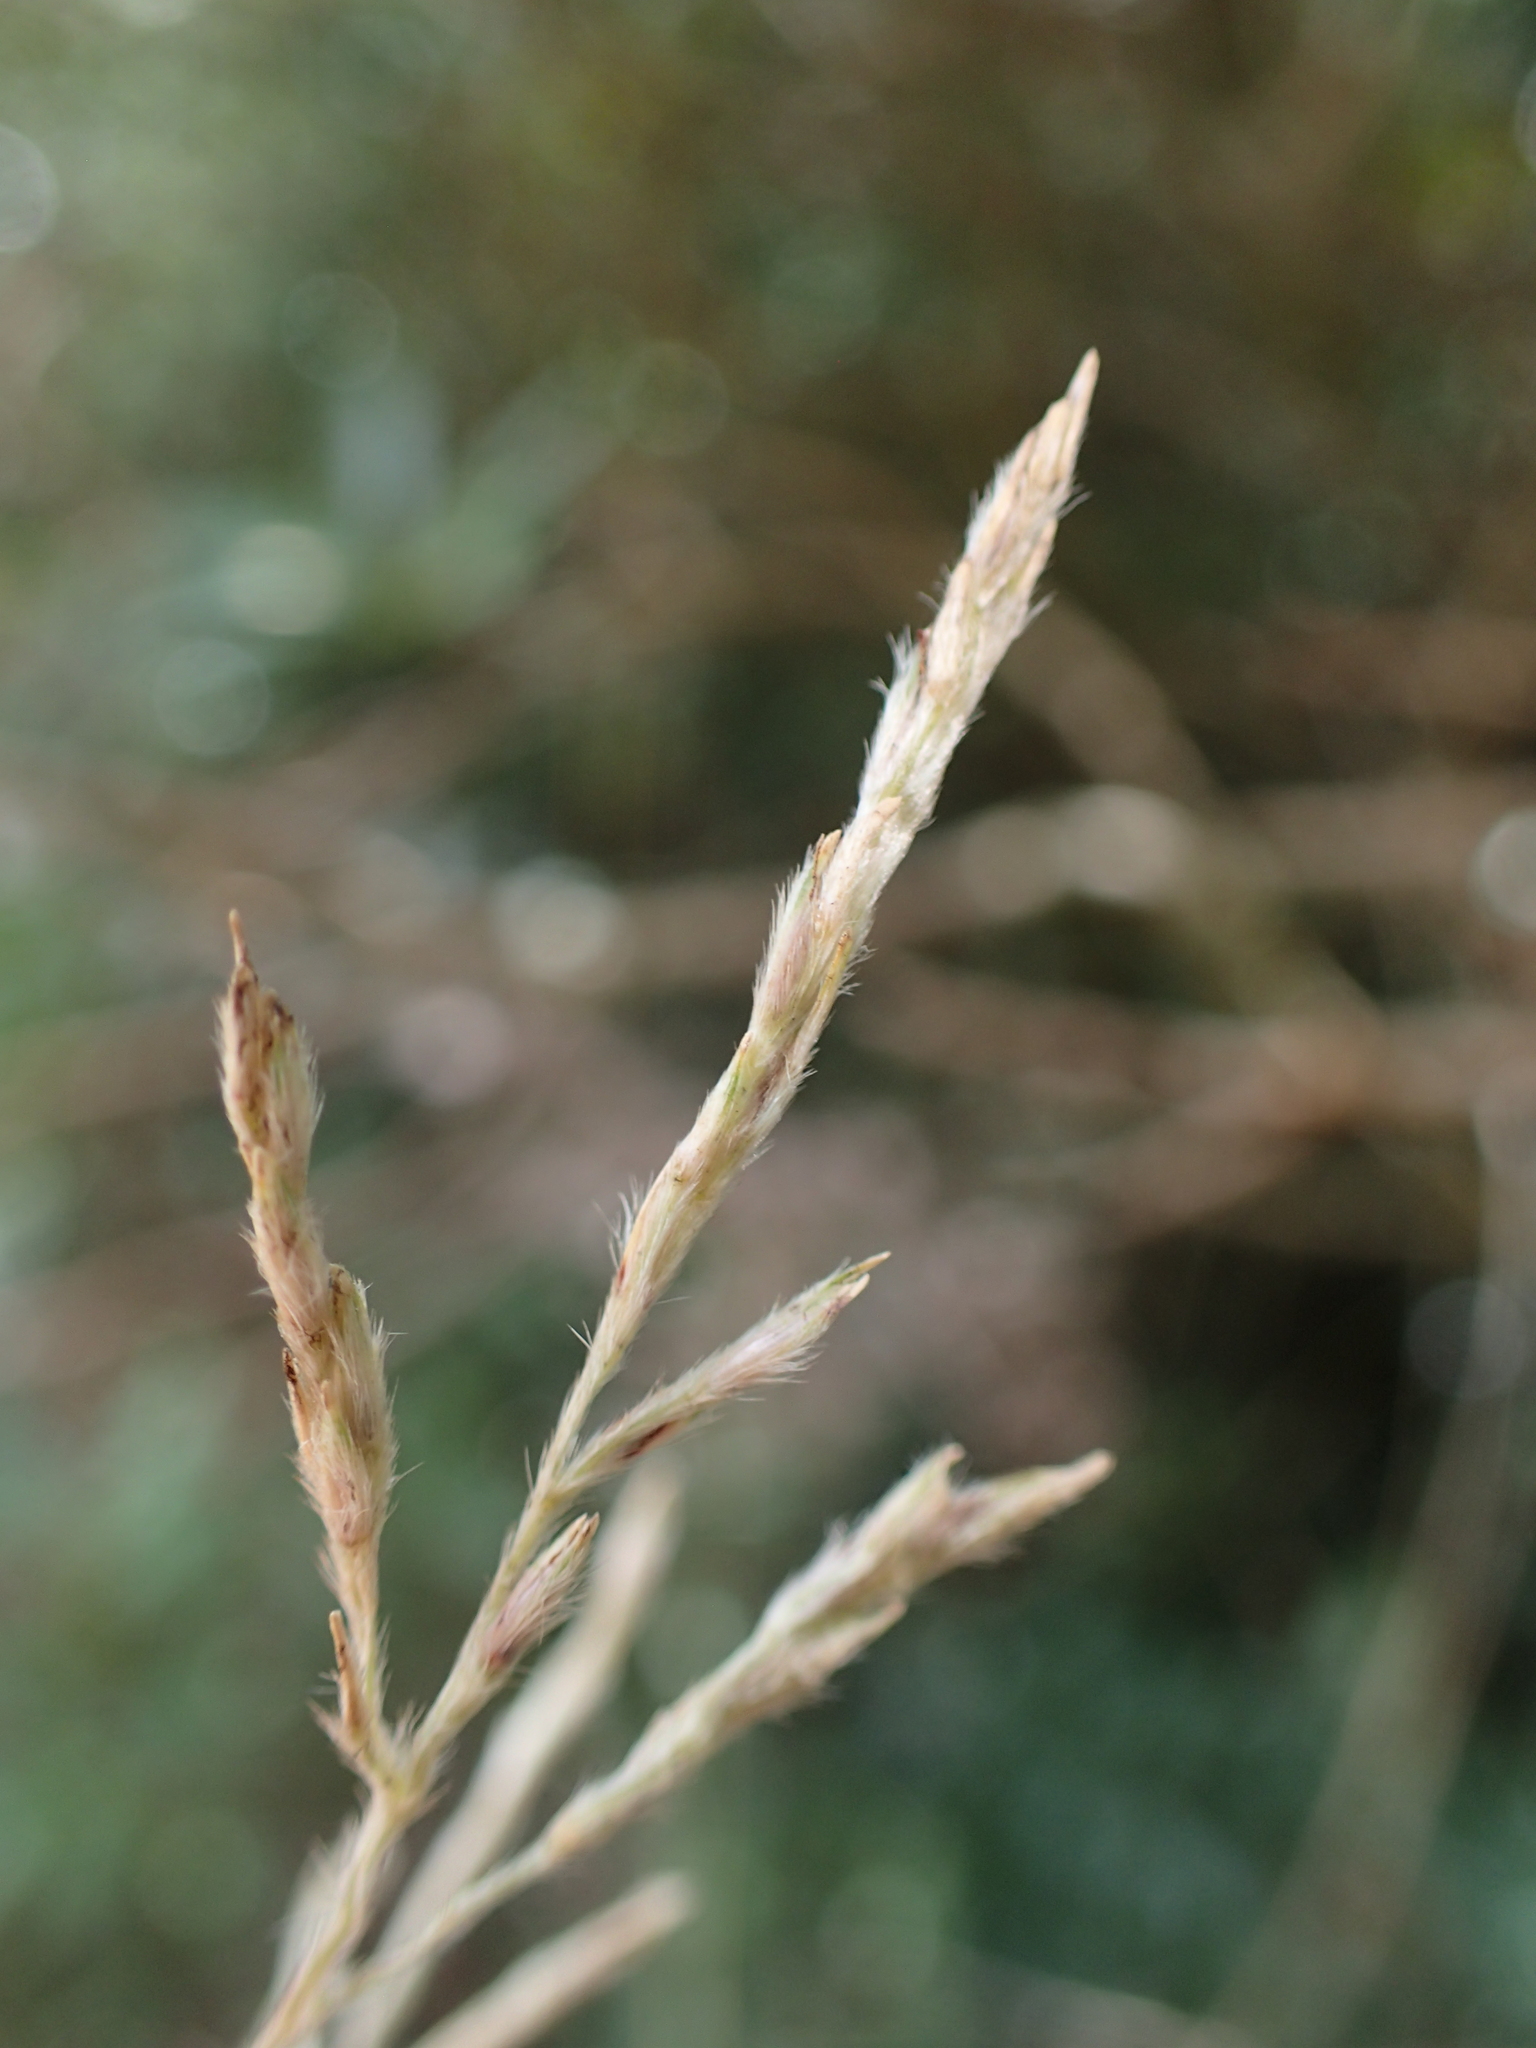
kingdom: Plantae
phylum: Tracheophyta
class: Liliopsida
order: Poales
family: Poaceae
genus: Lasiorhachis
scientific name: Lasiorhachis hildebrandtii
